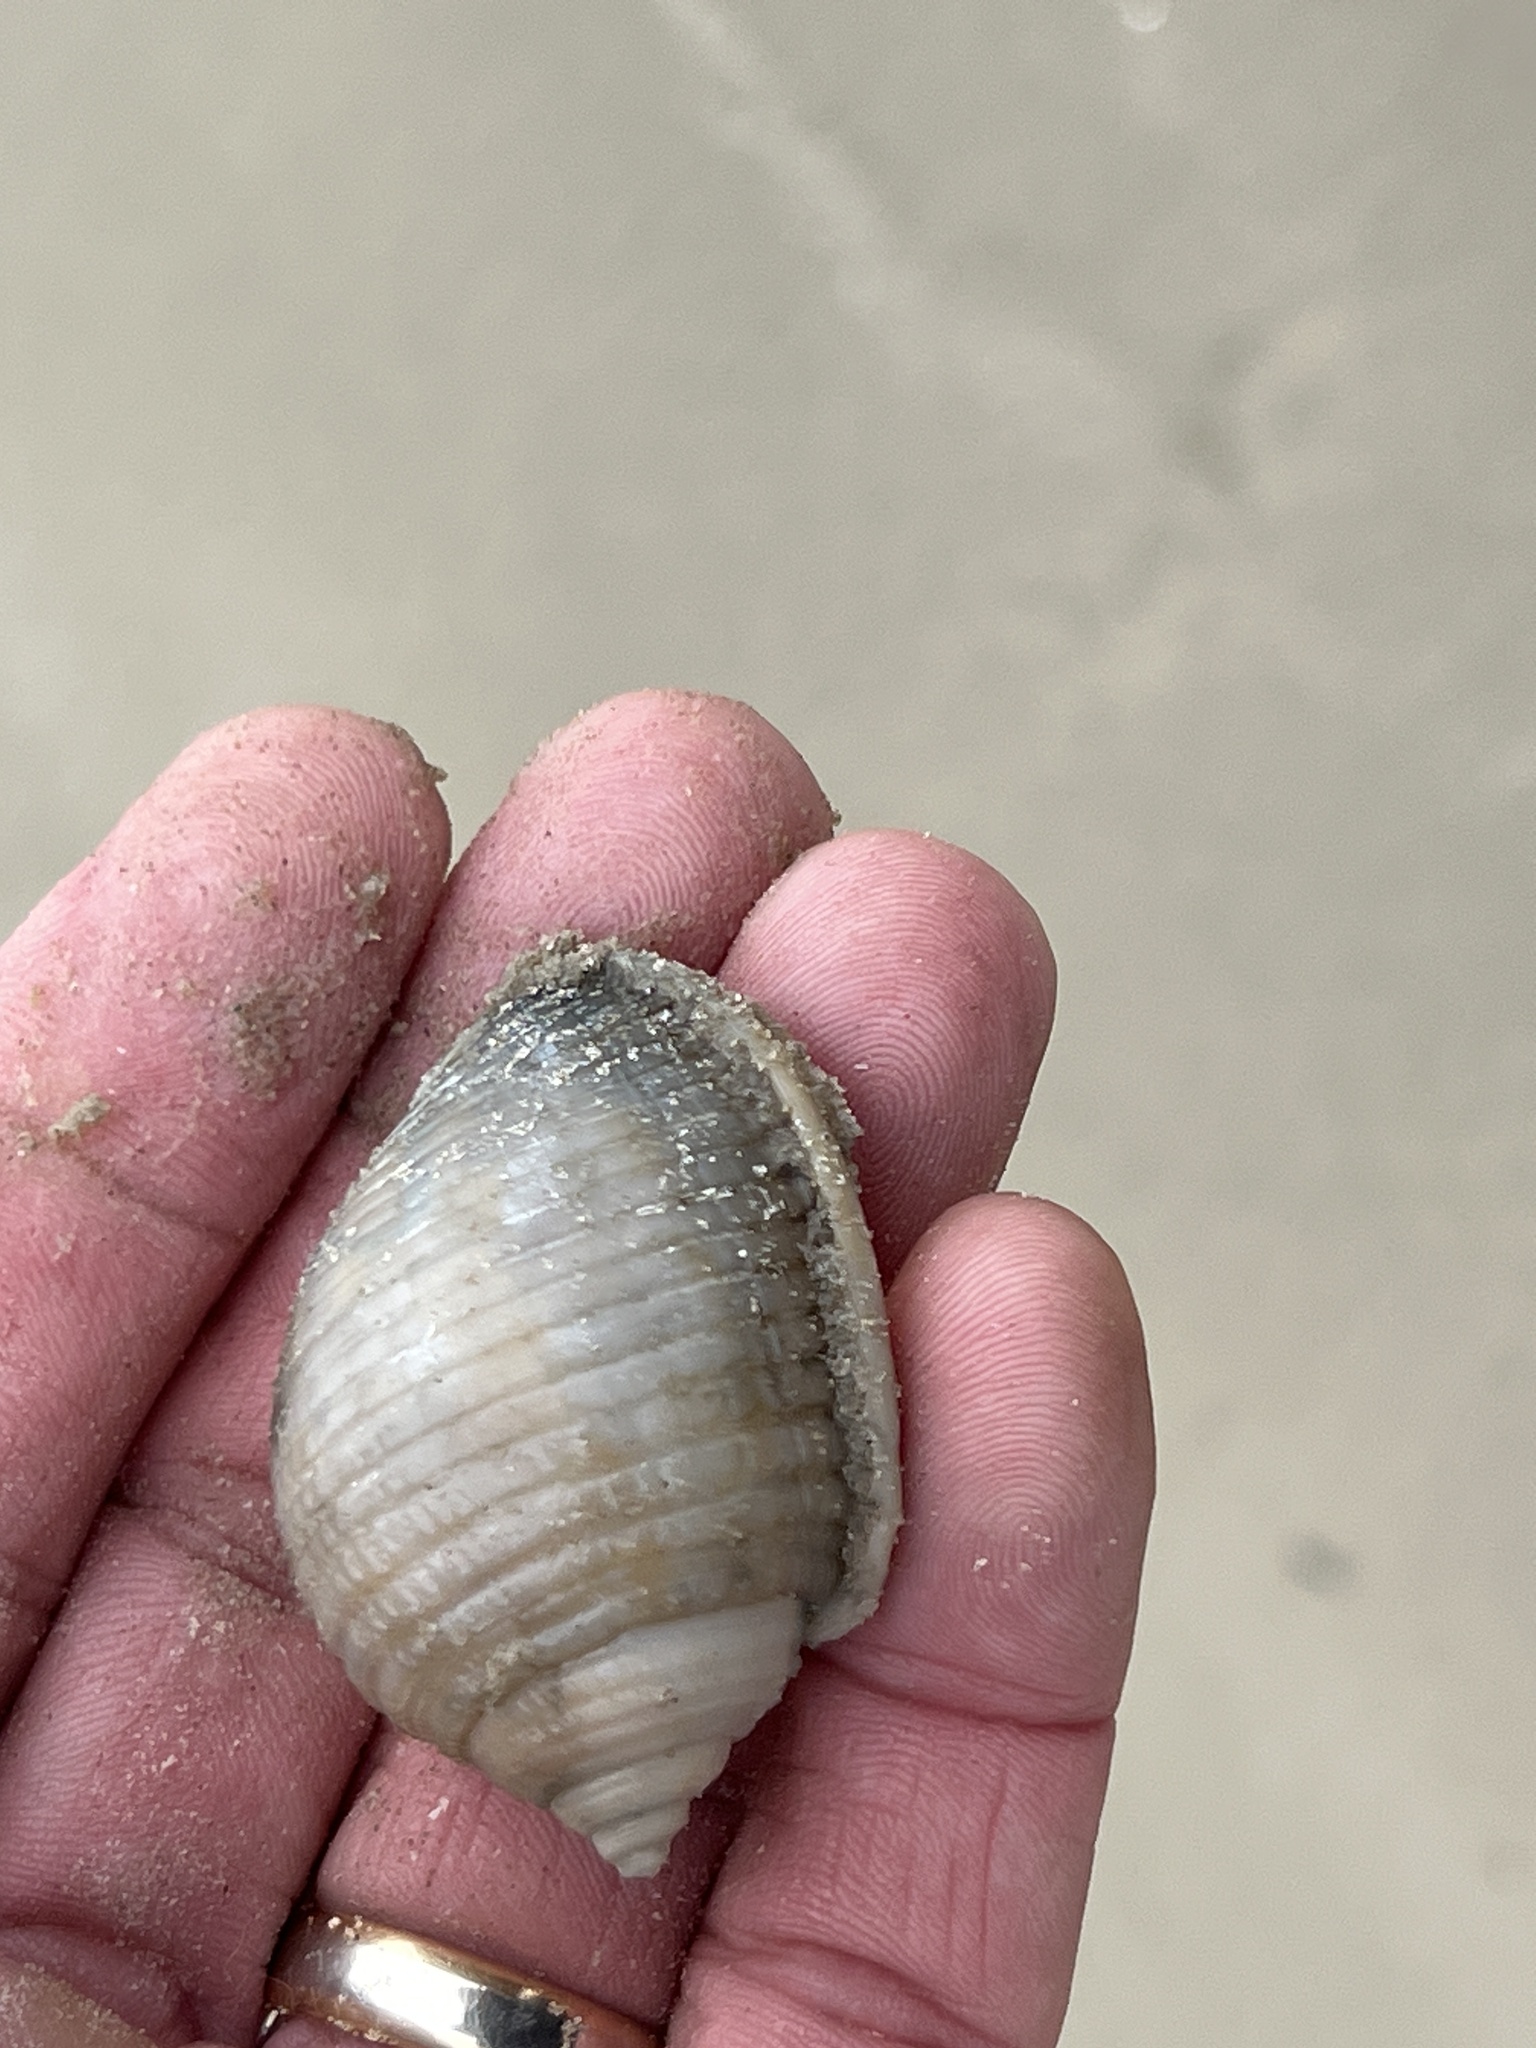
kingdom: Animalia
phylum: Mollusca
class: Gastropoda
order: Littorinimorpha
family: Cassidae
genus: Semicassis
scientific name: Semicassis granulata
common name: Scotch bonnet
